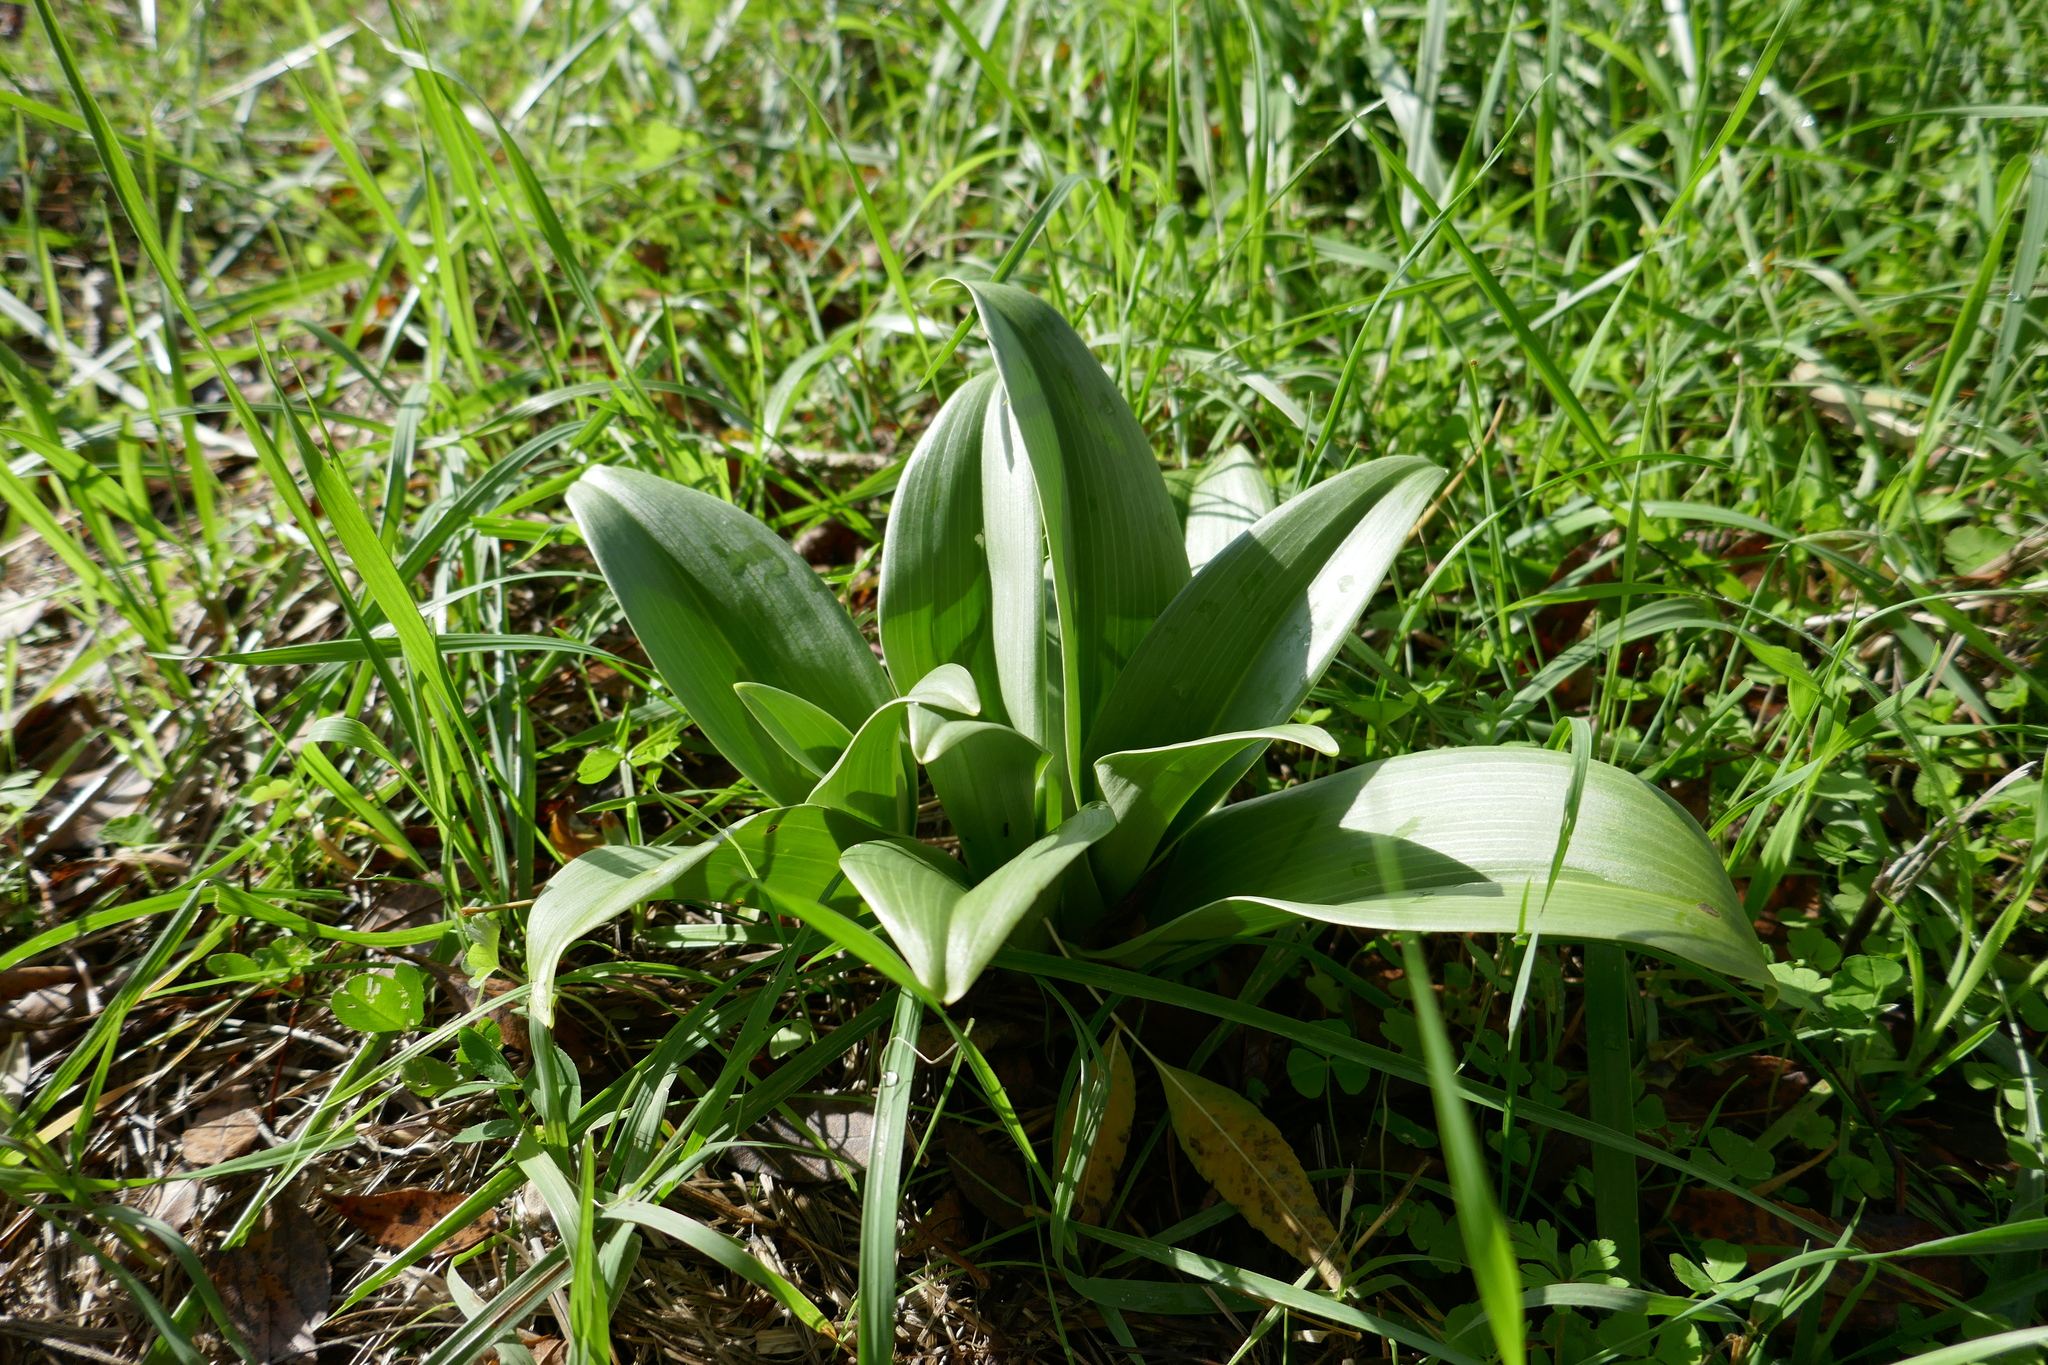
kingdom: Plantae
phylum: Tracheophyta
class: Liliopsida
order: Asparagales
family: Orchidaceae
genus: Himantoglossum
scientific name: Himantoglossum hircinum
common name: Lizard orchid
